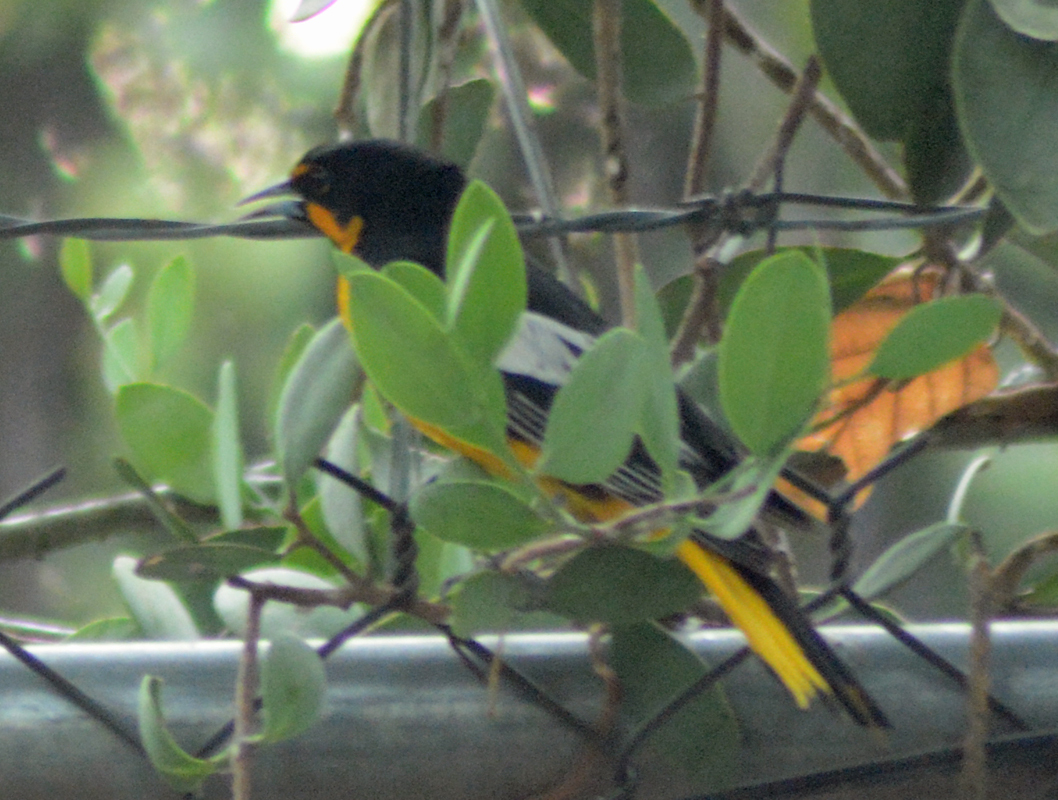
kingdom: Animalia
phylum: Chordata
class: Aves
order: Passeriformes
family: Icteridae
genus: Icterus
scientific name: Icterus abeillei
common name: Black-backed oriole
